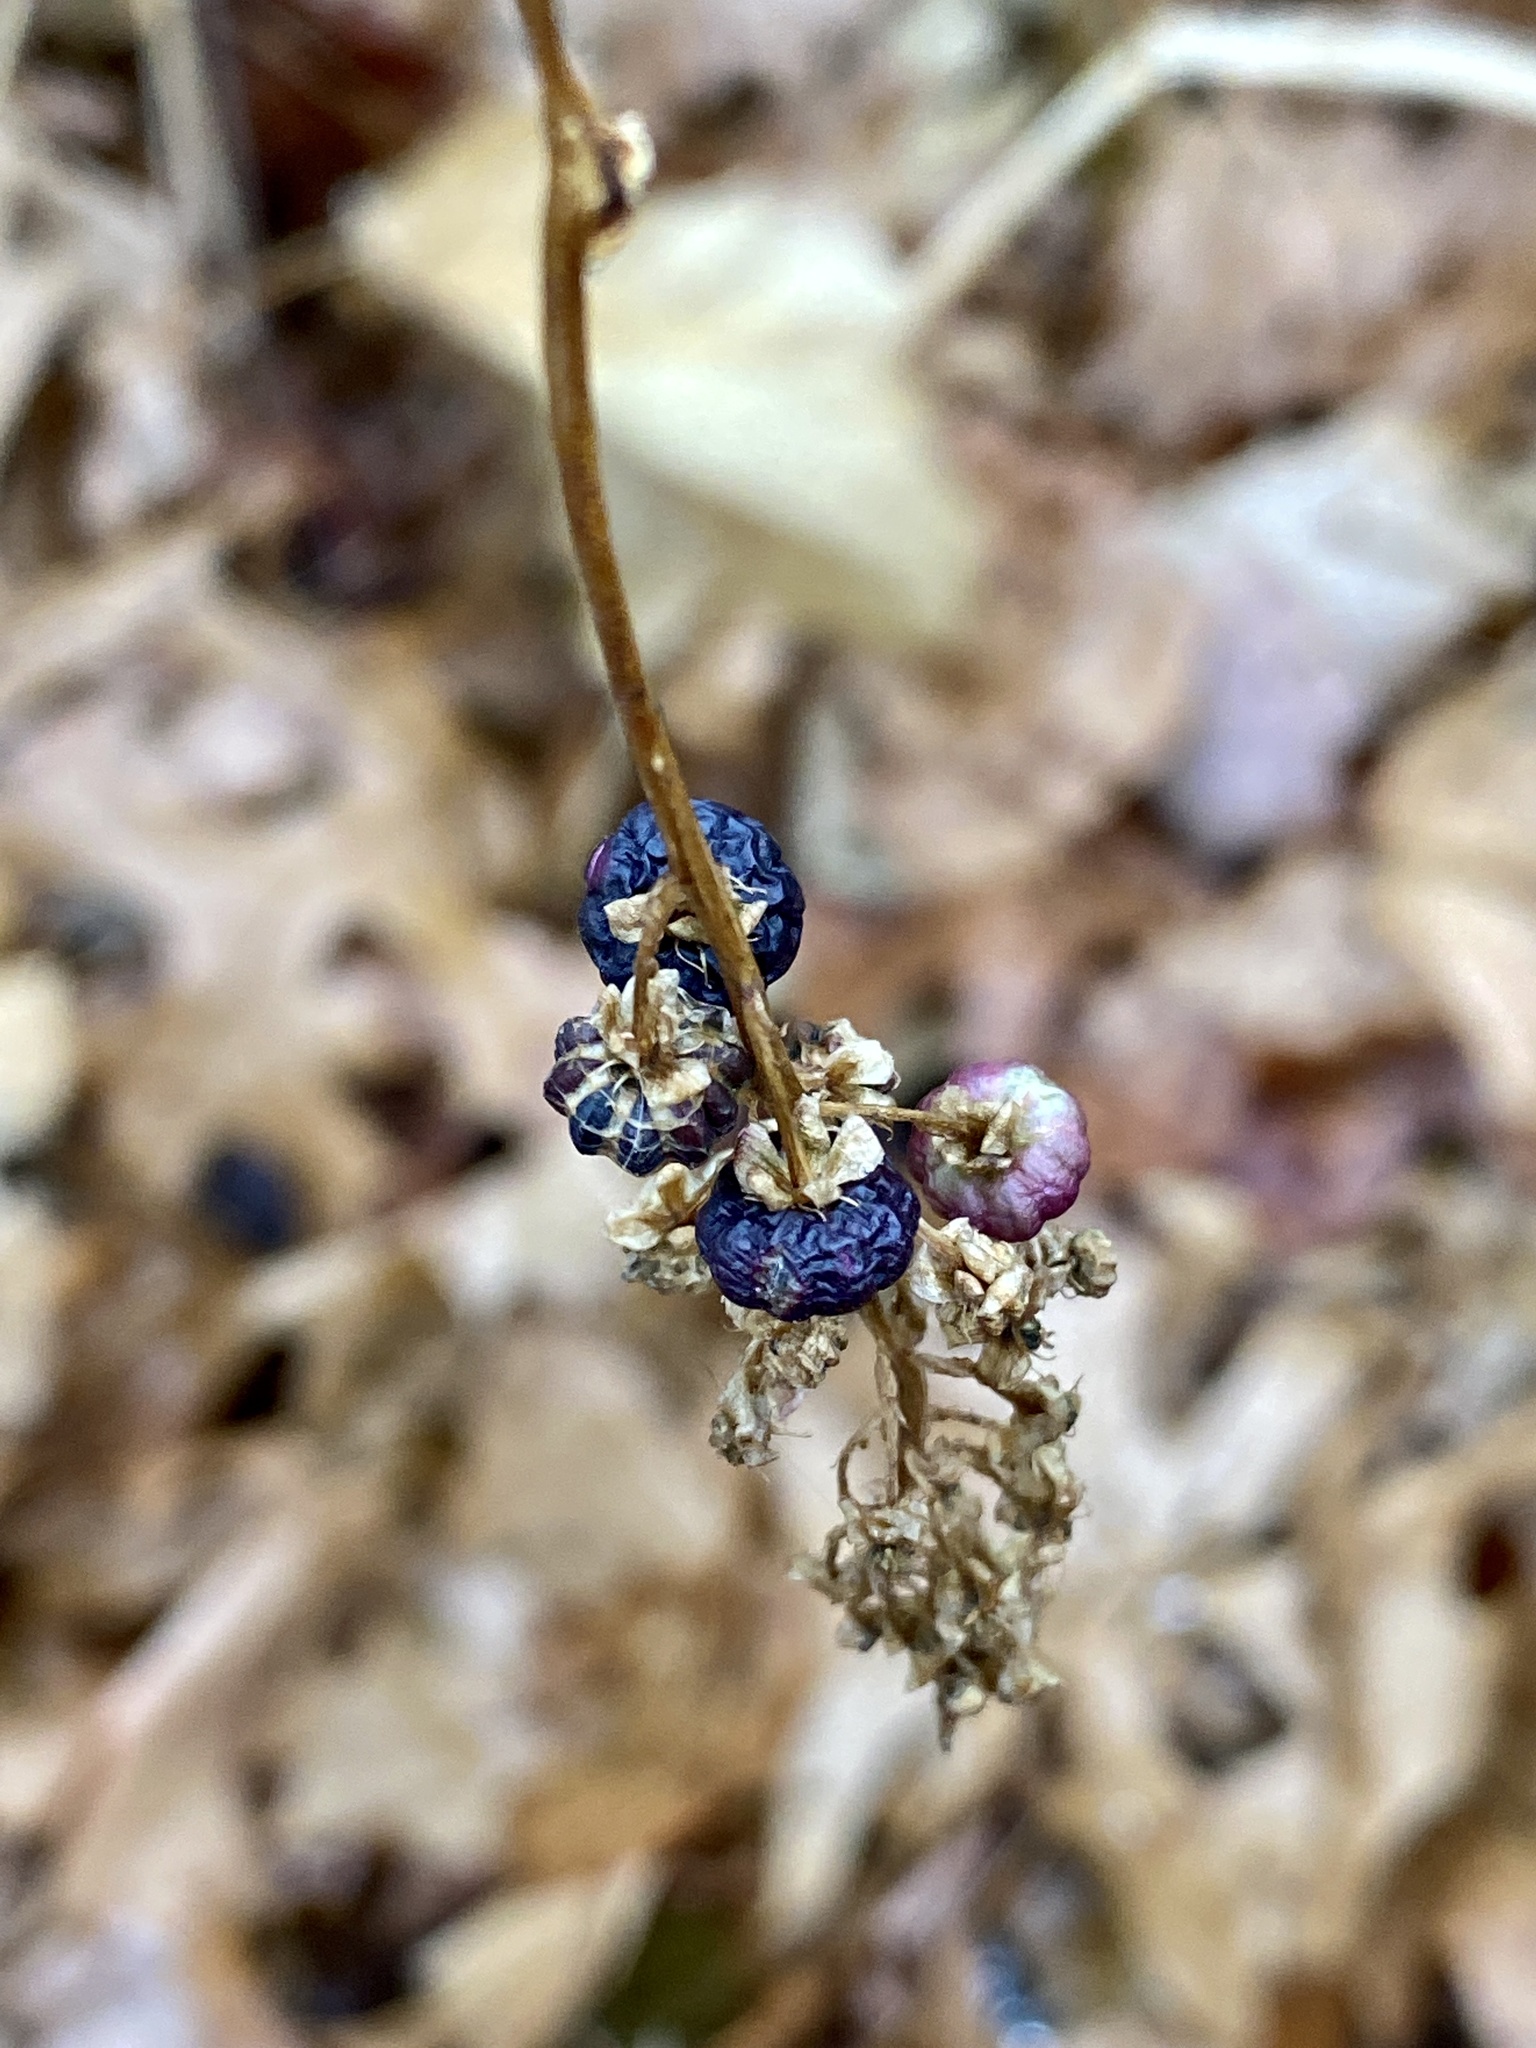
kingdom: Plantae
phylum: Tracheophyta
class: Magnoliopsida
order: Caryophyllales
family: Phytolaccaceae
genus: Phytolacca
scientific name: Phytolacca americana
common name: American pokeweed
